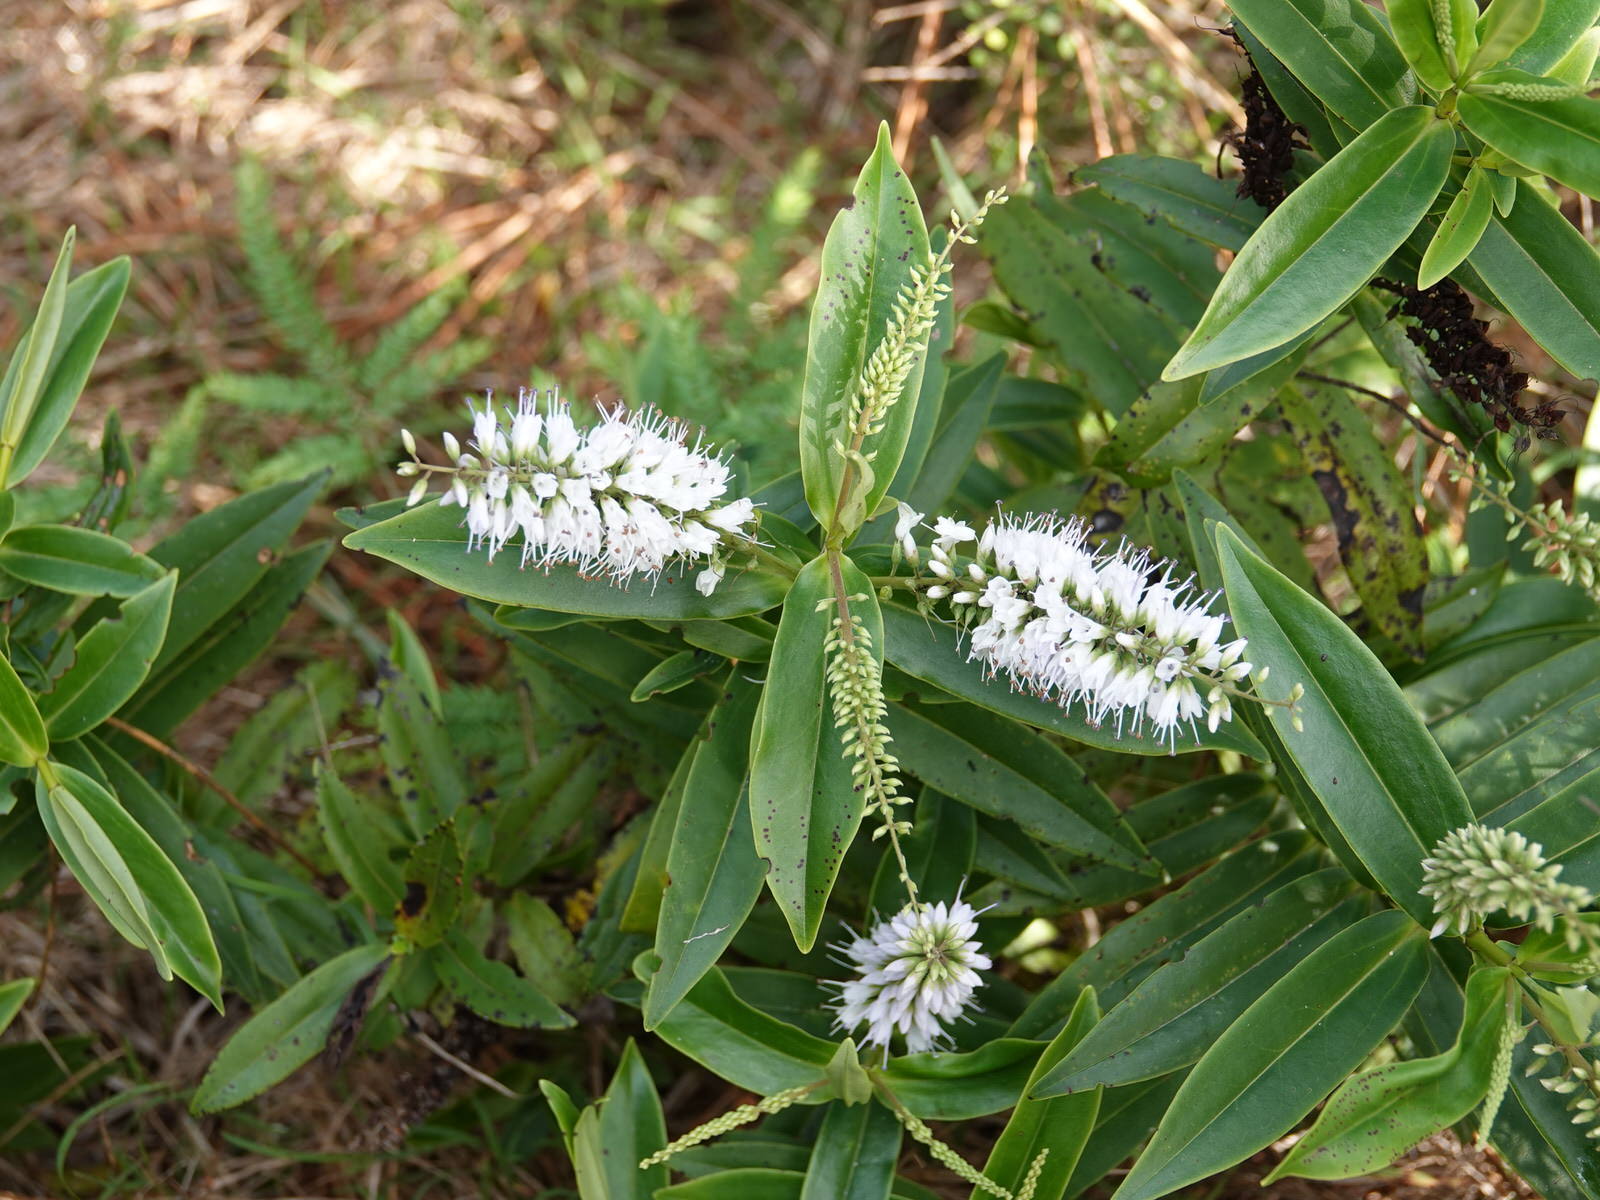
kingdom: Plantae
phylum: Tracheophyta
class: Magnoliopsida
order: Lamiales
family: Plantaginaceae
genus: Veronica
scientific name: Veronica macrocarpa
